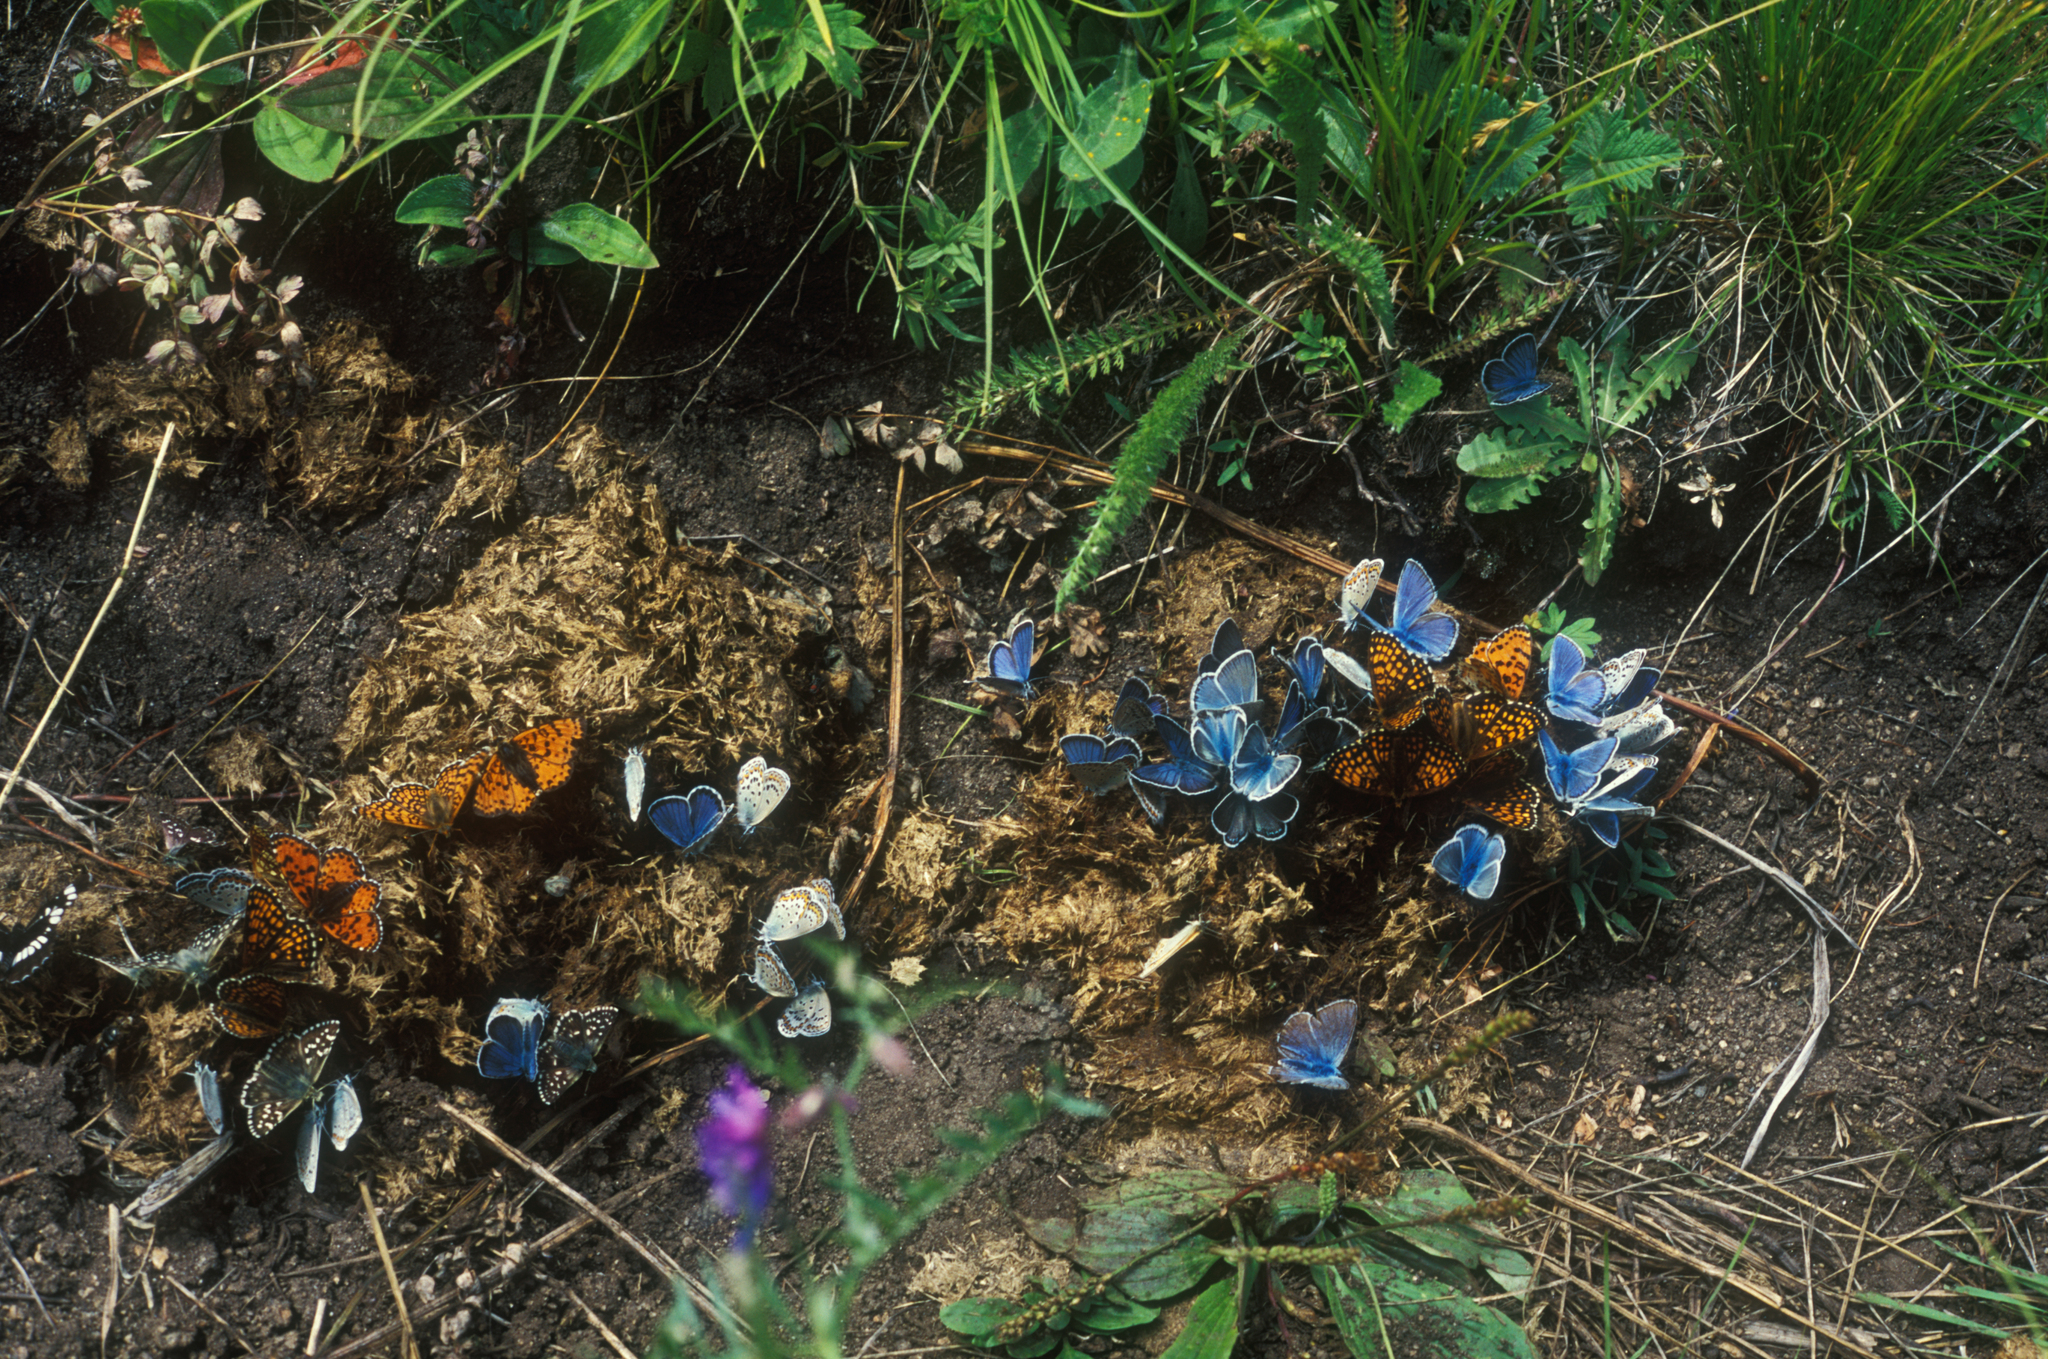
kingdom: Animalia
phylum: Arthropoda
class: Insecta
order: Lepidoptera
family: Nymphalidae
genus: Melitaea
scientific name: Melitaea cinxia
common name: Glanville fritillary
